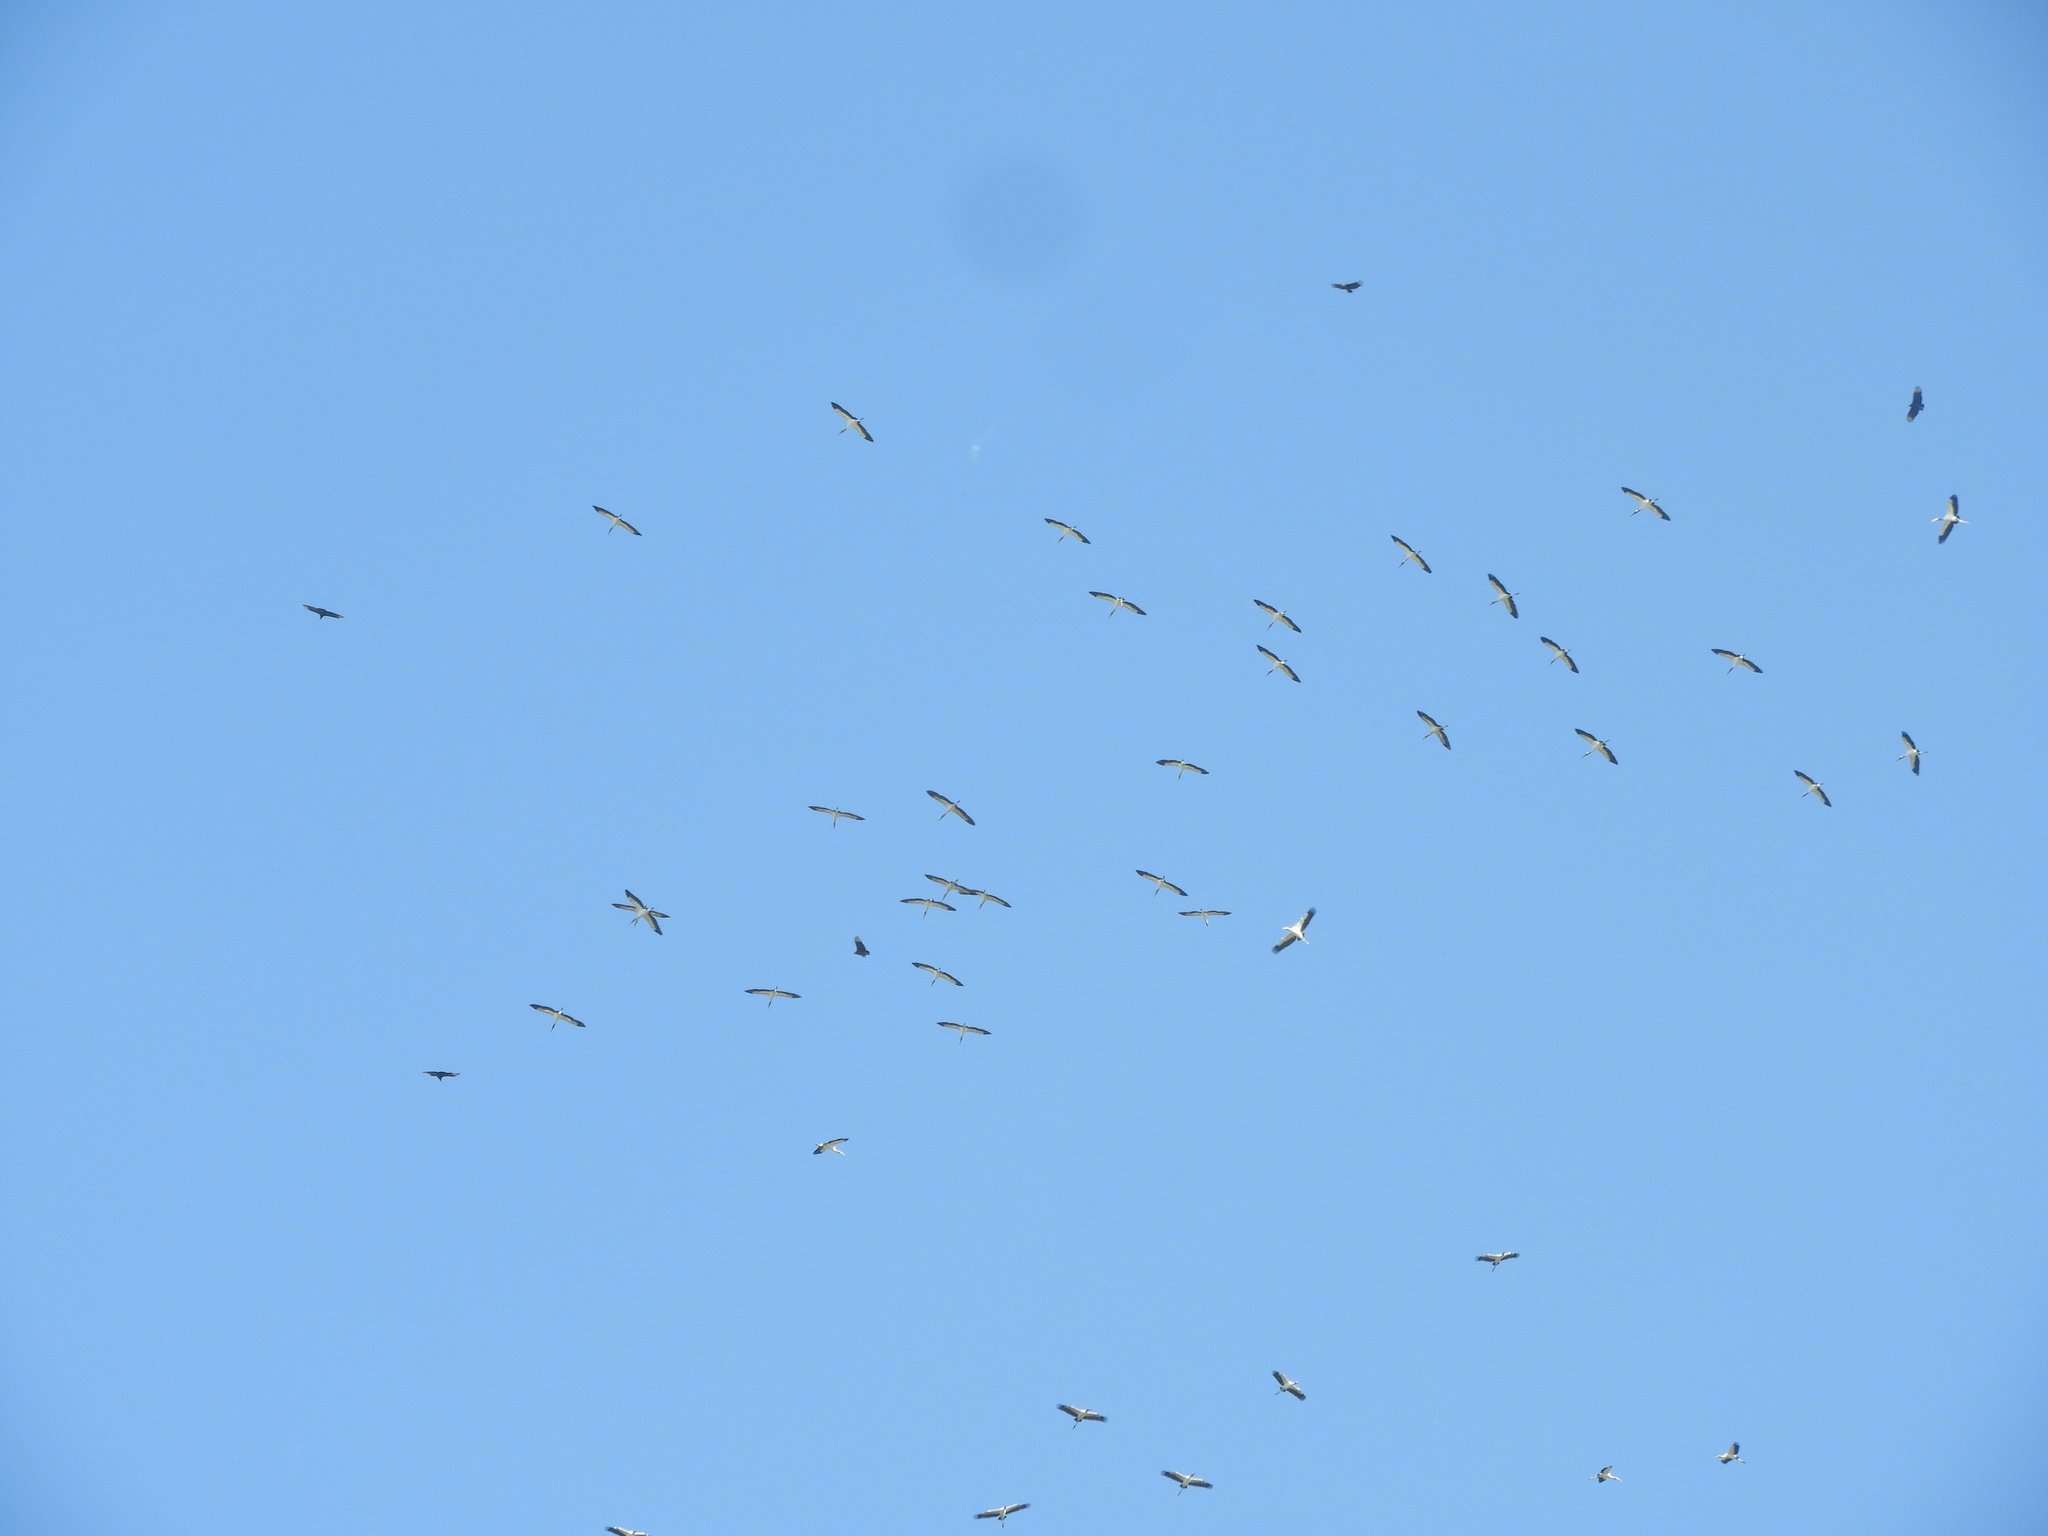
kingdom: Animalia
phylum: Chordata
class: Aves
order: Ciconiiformes
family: Ciconiidae
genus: Mycteria
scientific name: Mycteria americana
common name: Wood stork
